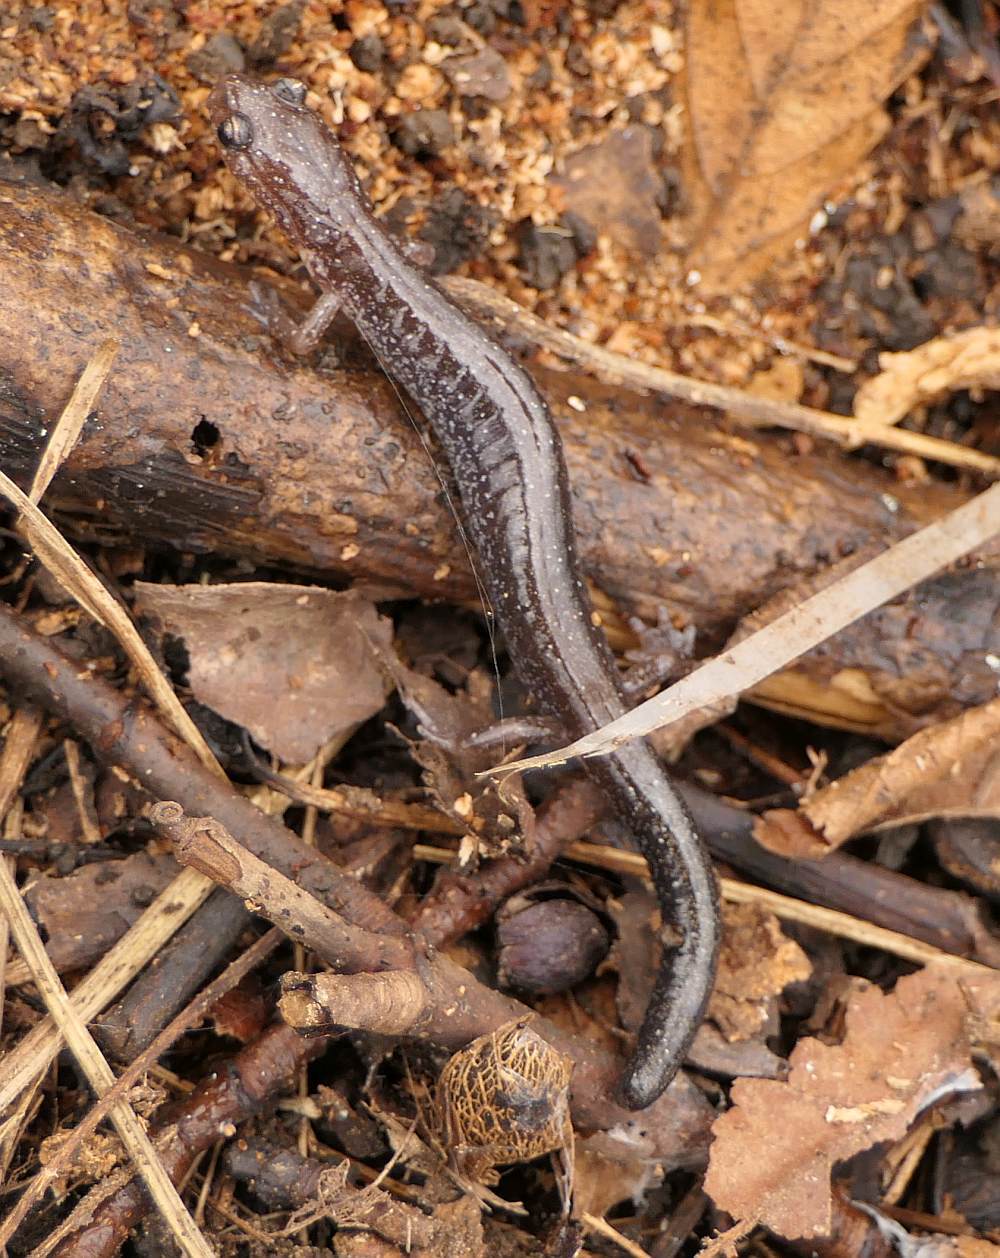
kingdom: Animalia
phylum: Chordata
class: Amphibia
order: Caudata
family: Plethodontidae
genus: Plethodon
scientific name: Plethodon cinereus
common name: Redback salamander
